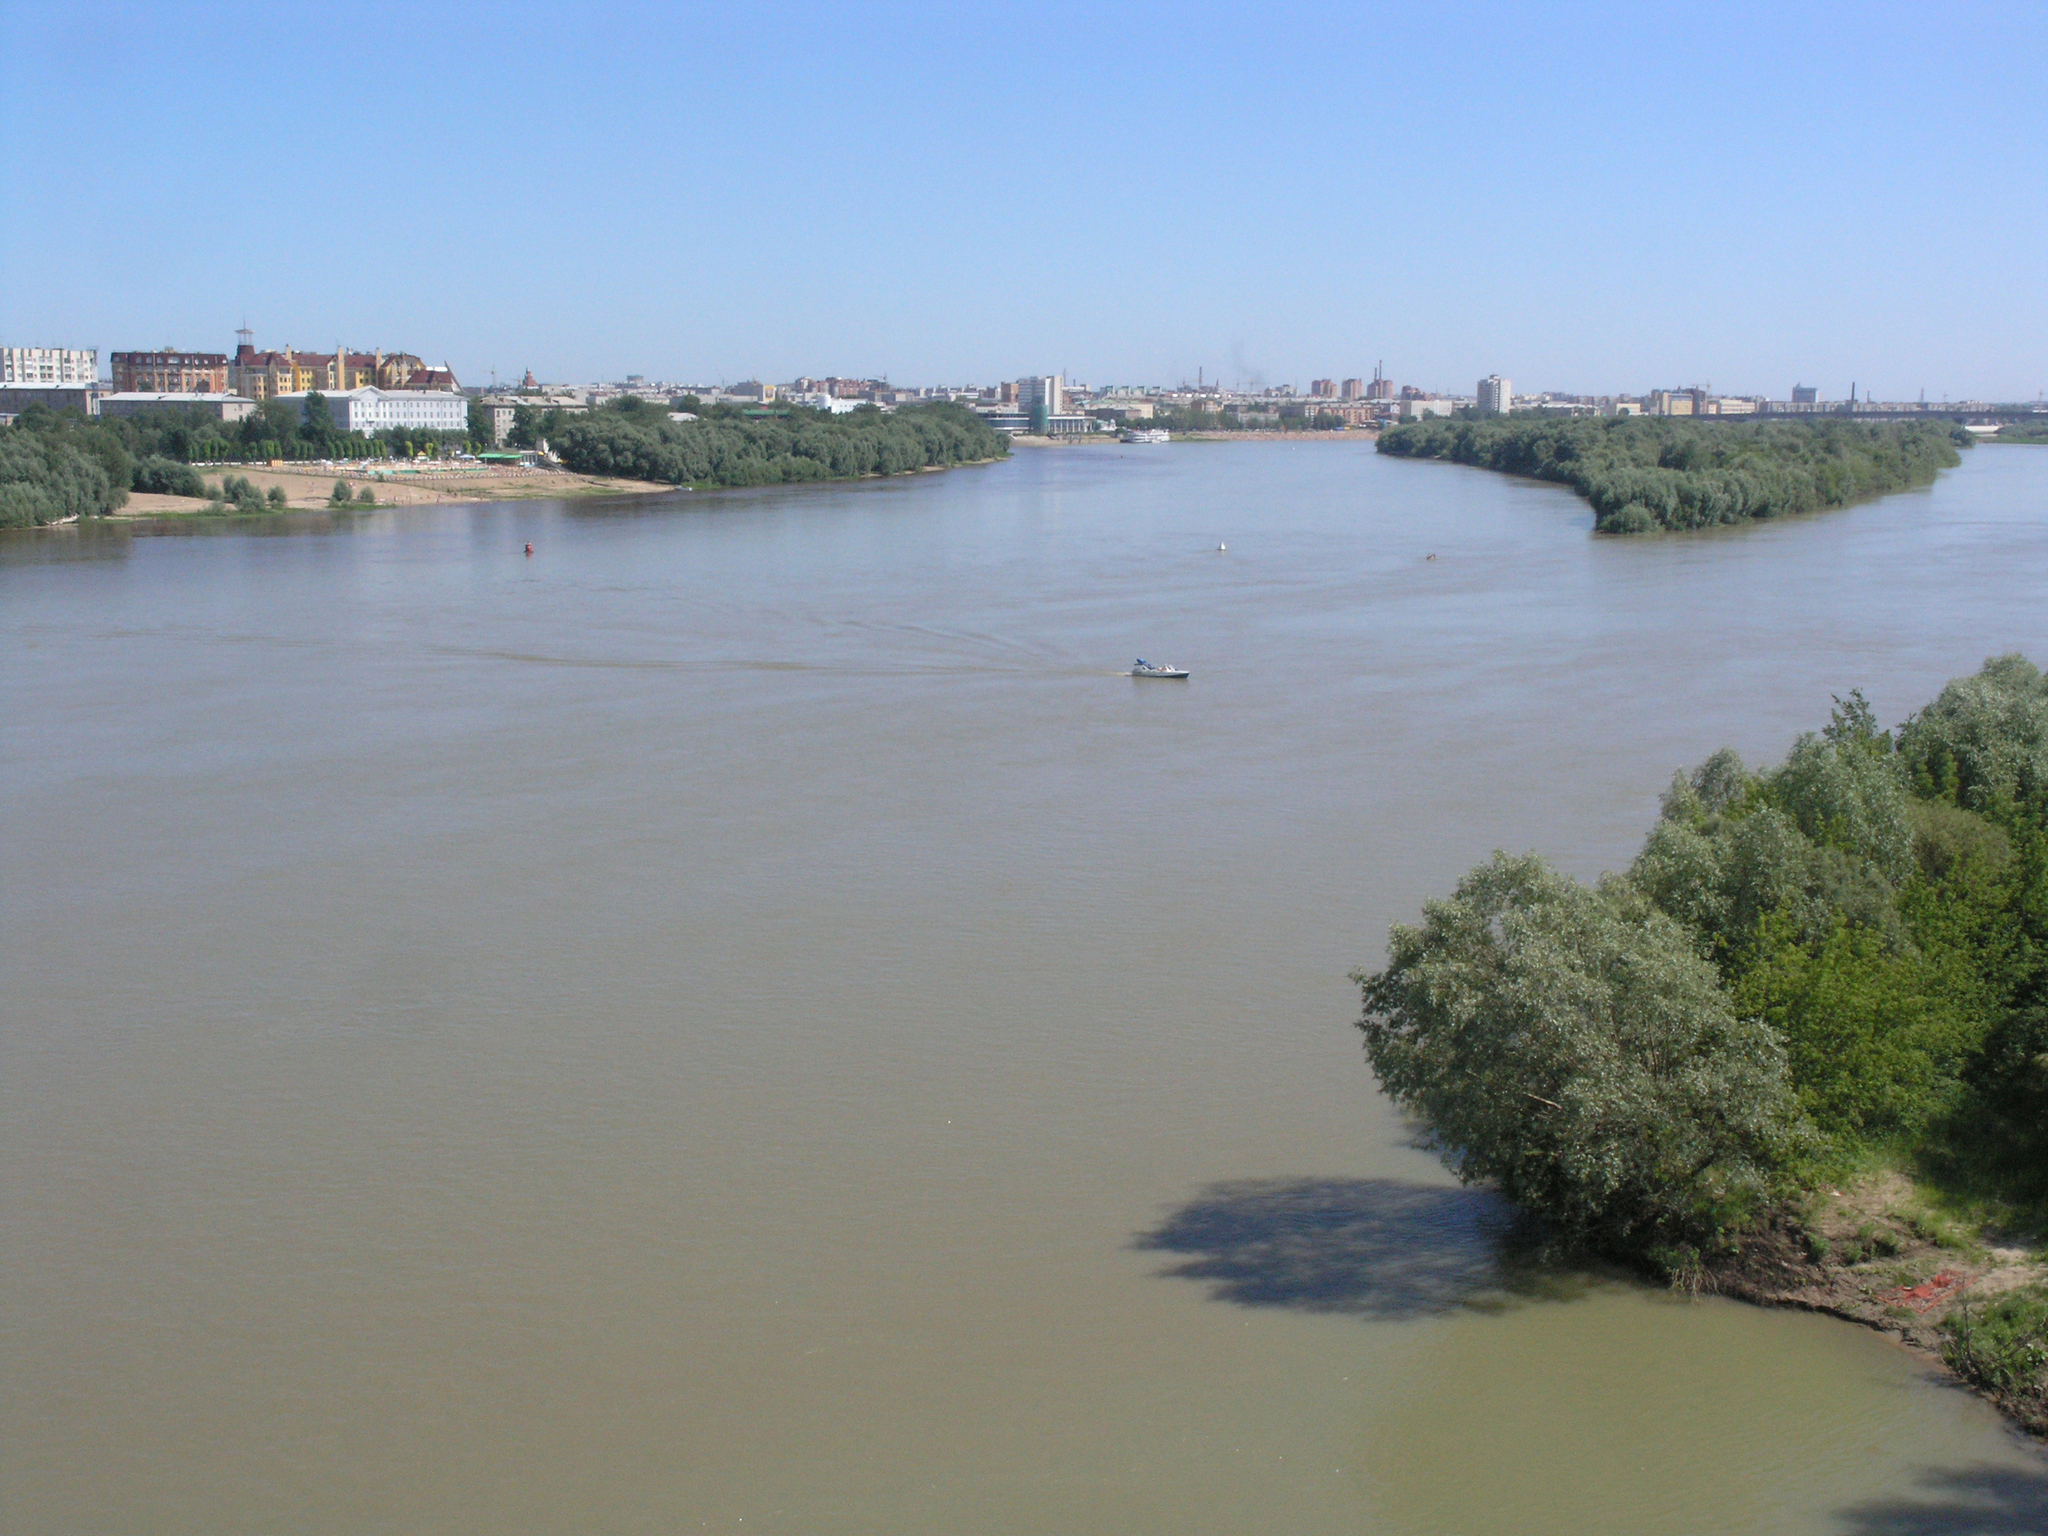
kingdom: Plantae
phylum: Tracheophyta
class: Magnoliopsida
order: Malpighiales
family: Salicaceae
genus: Salix
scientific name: Salix alba
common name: White willow
